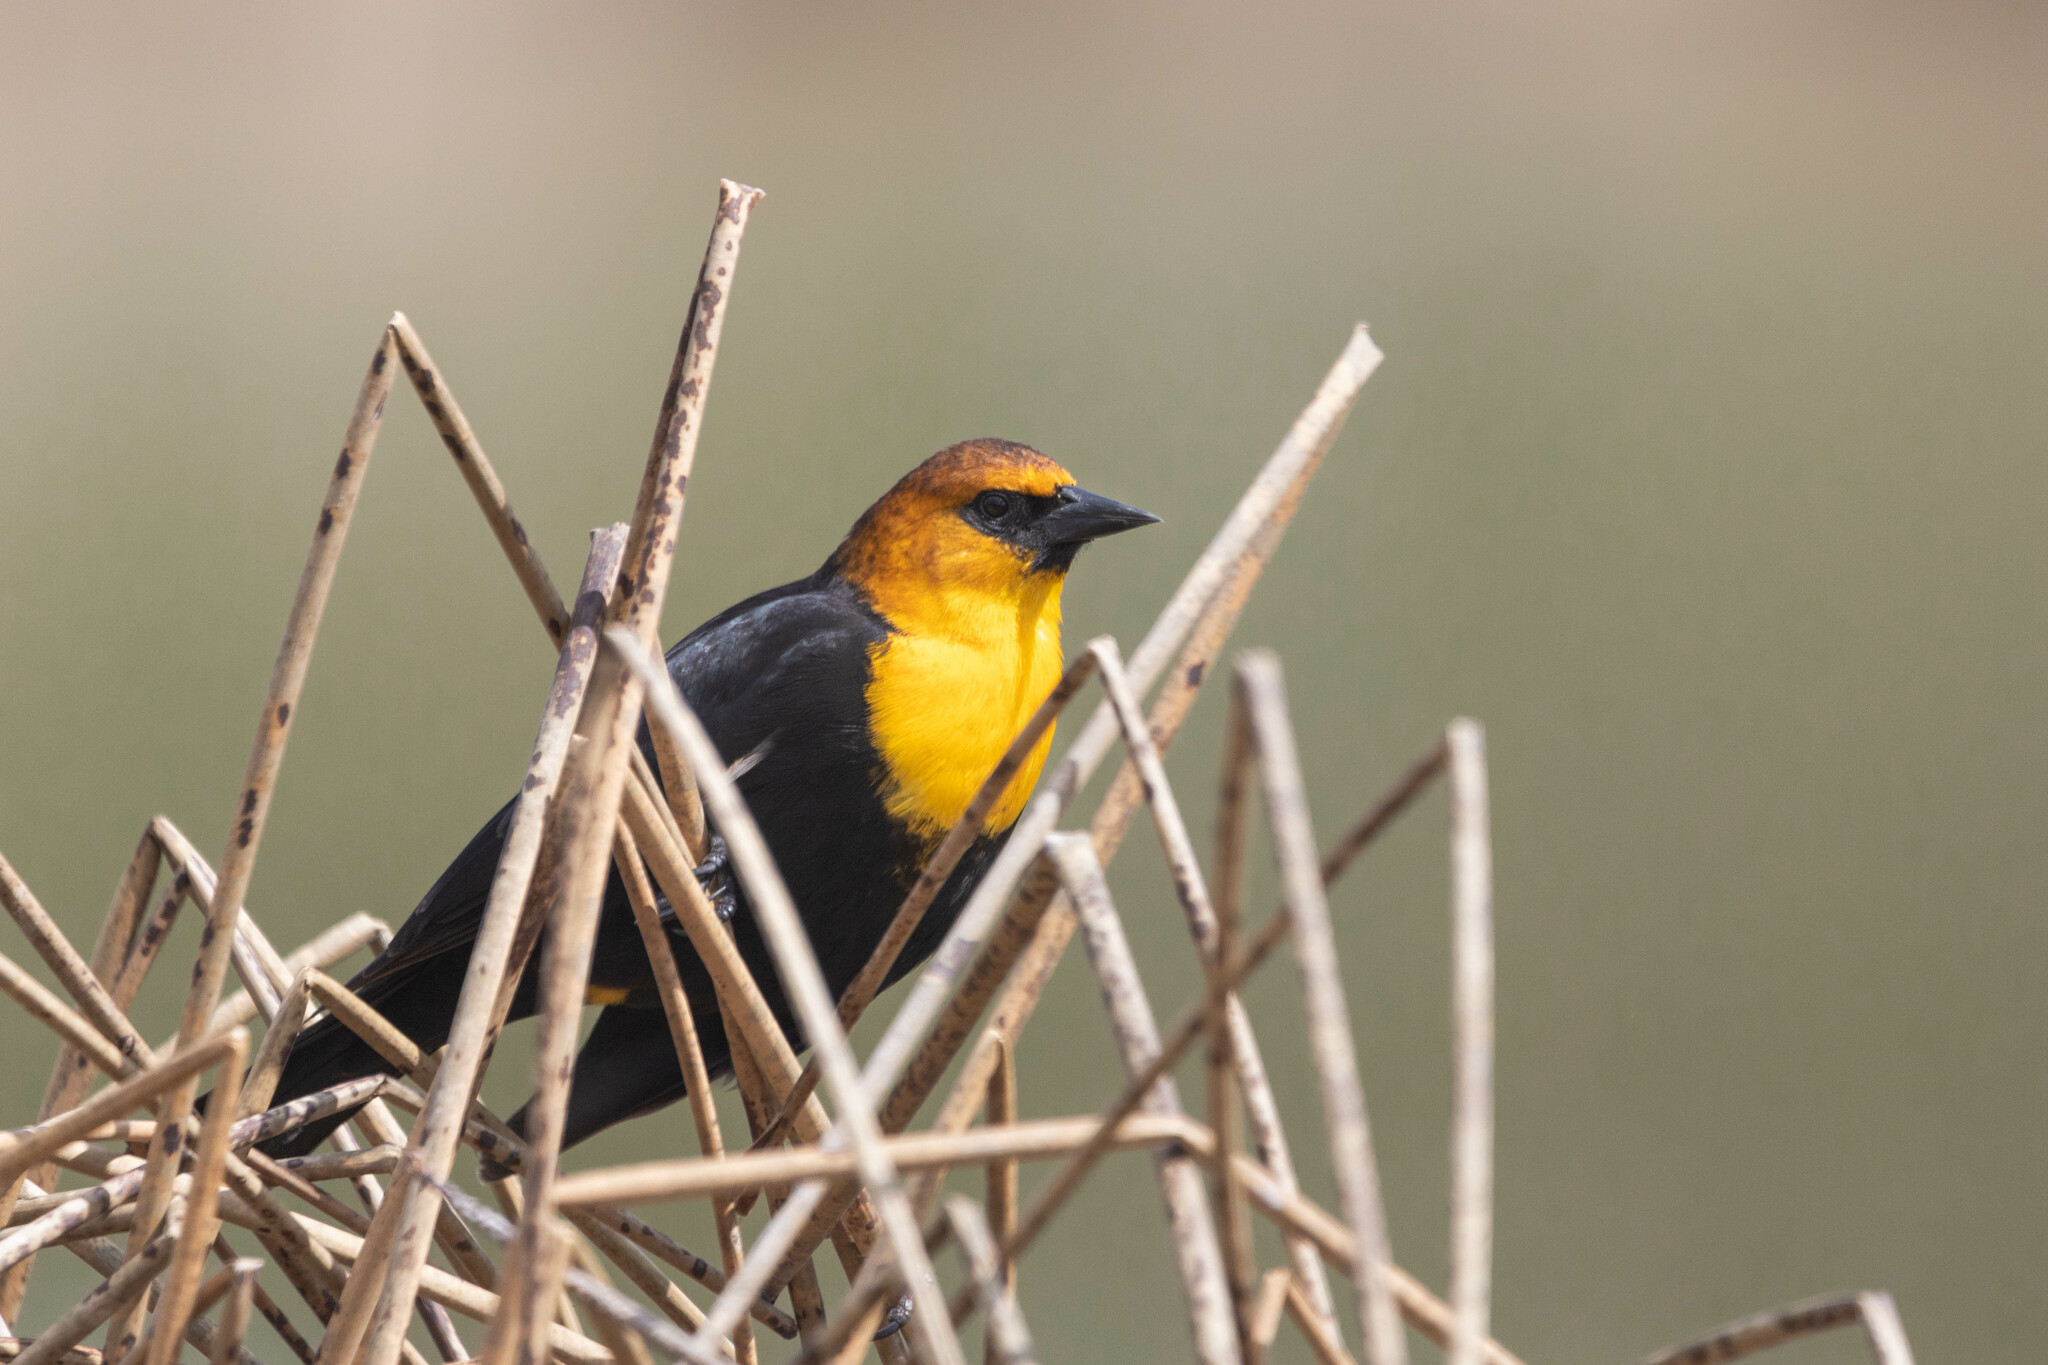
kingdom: Animalia
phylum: Chordata
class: Aves
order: Passeriformes
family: Icteridae
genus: Xanthocephalus
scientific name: Xanthocephalus xanthocephalus
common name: Yellow-headed blackbird
